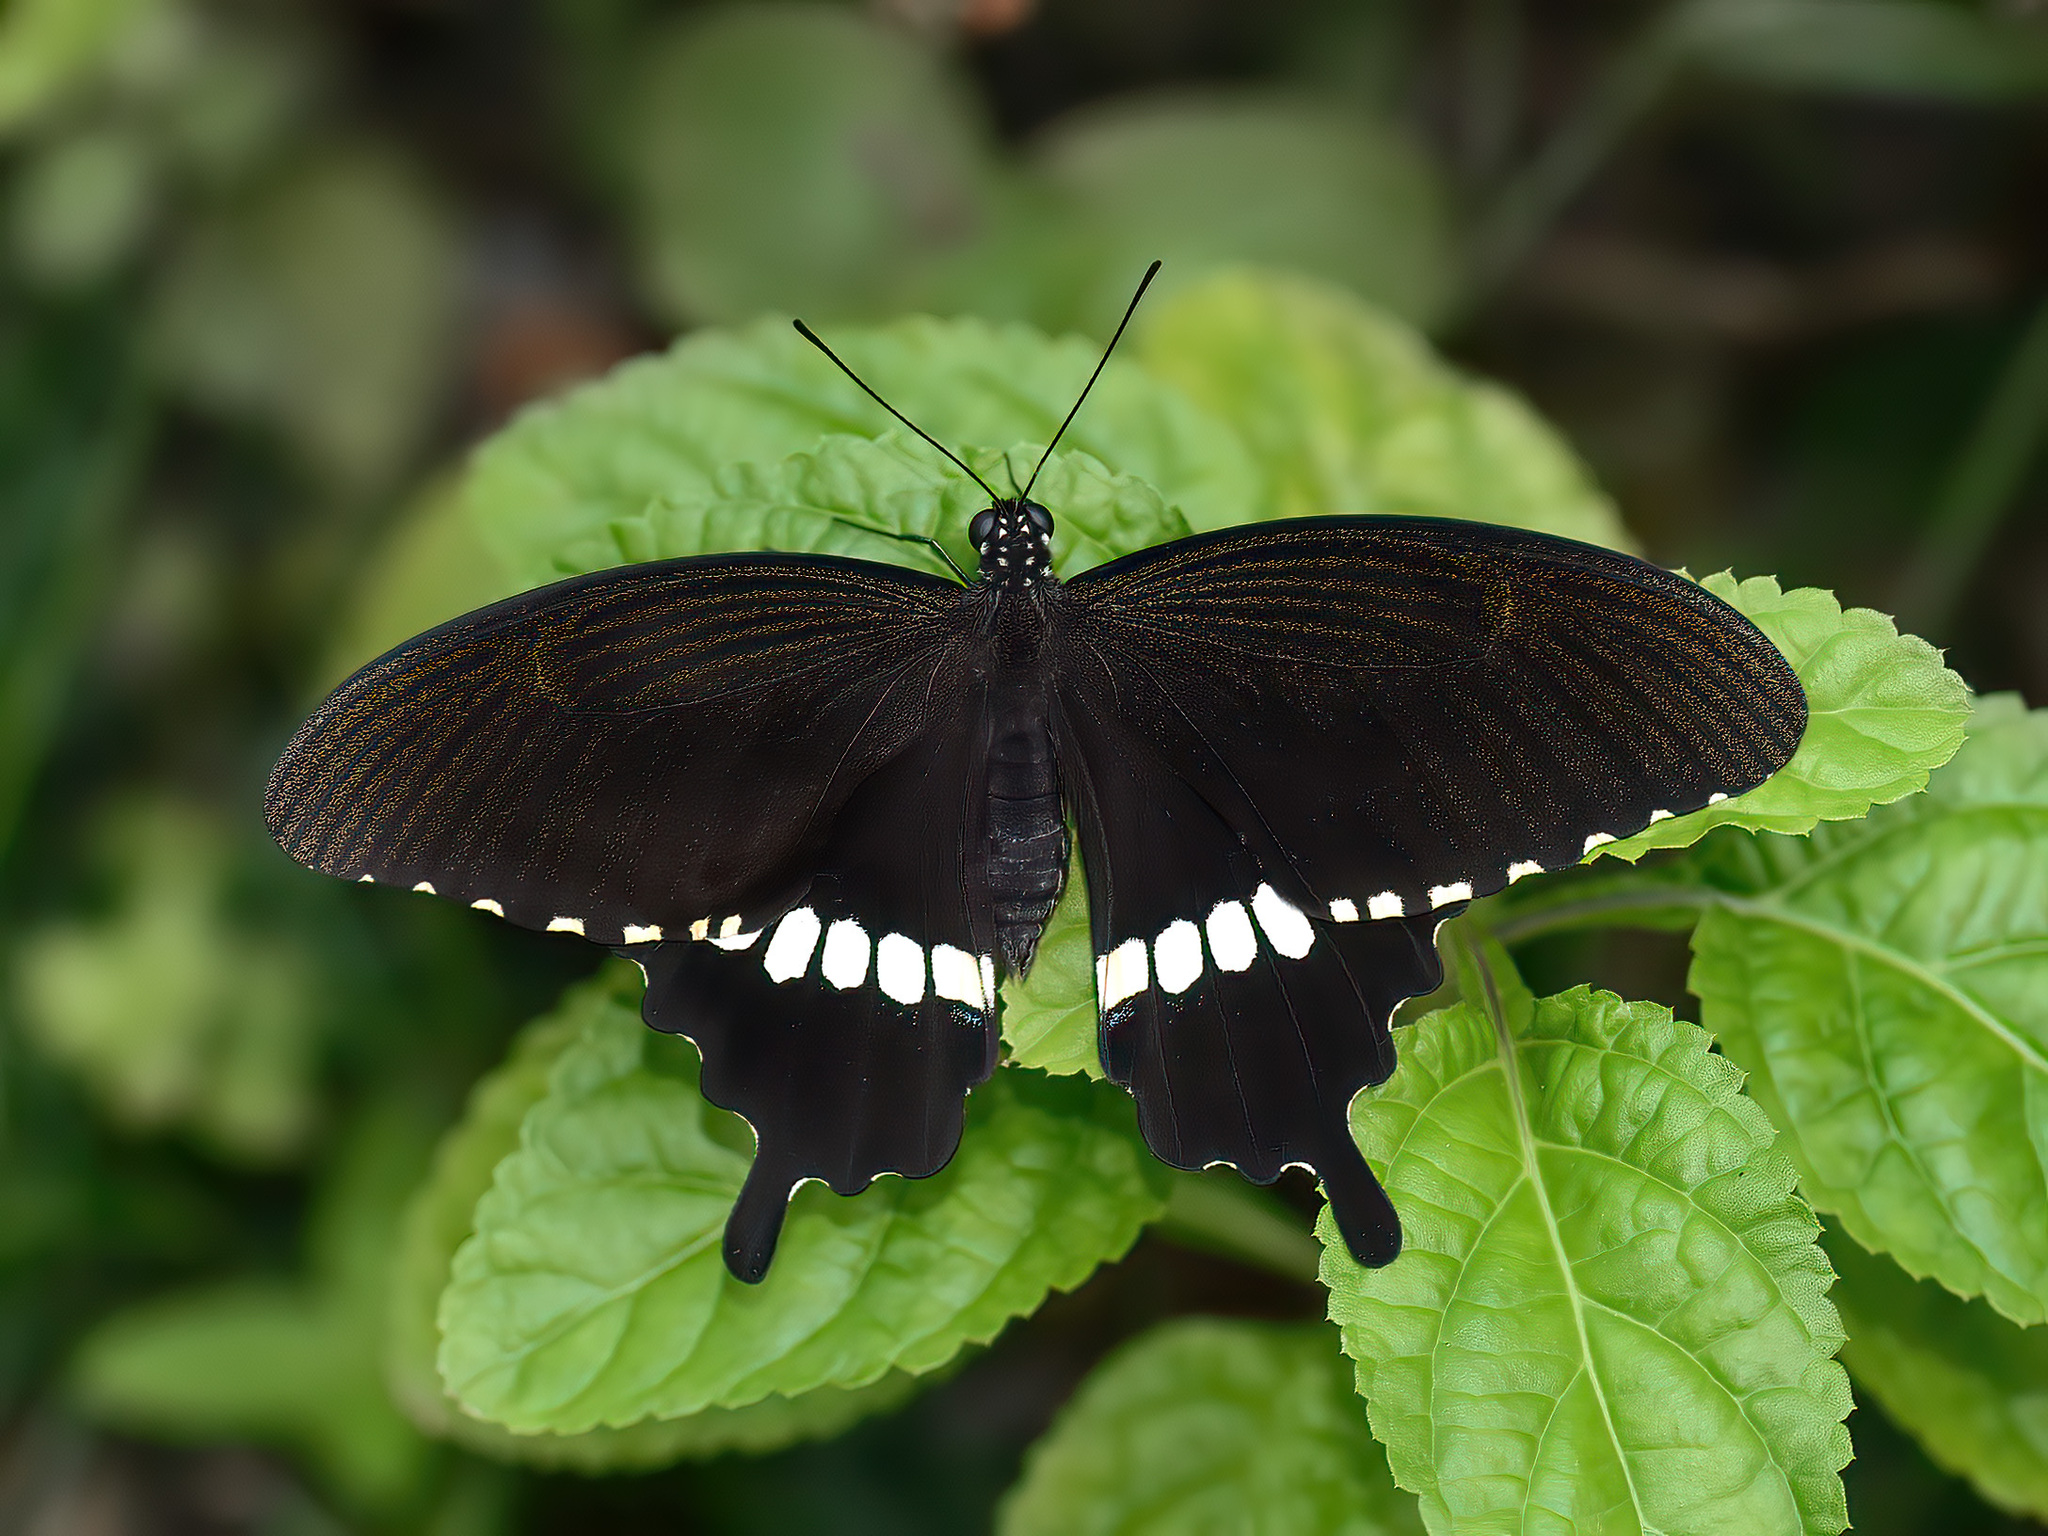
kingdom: Animalia
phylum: Arthropoda
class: Insecta
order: Lepidoptera
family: Papilionidae
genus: Papilio
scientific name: Papilio polytes
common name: Common mormon
